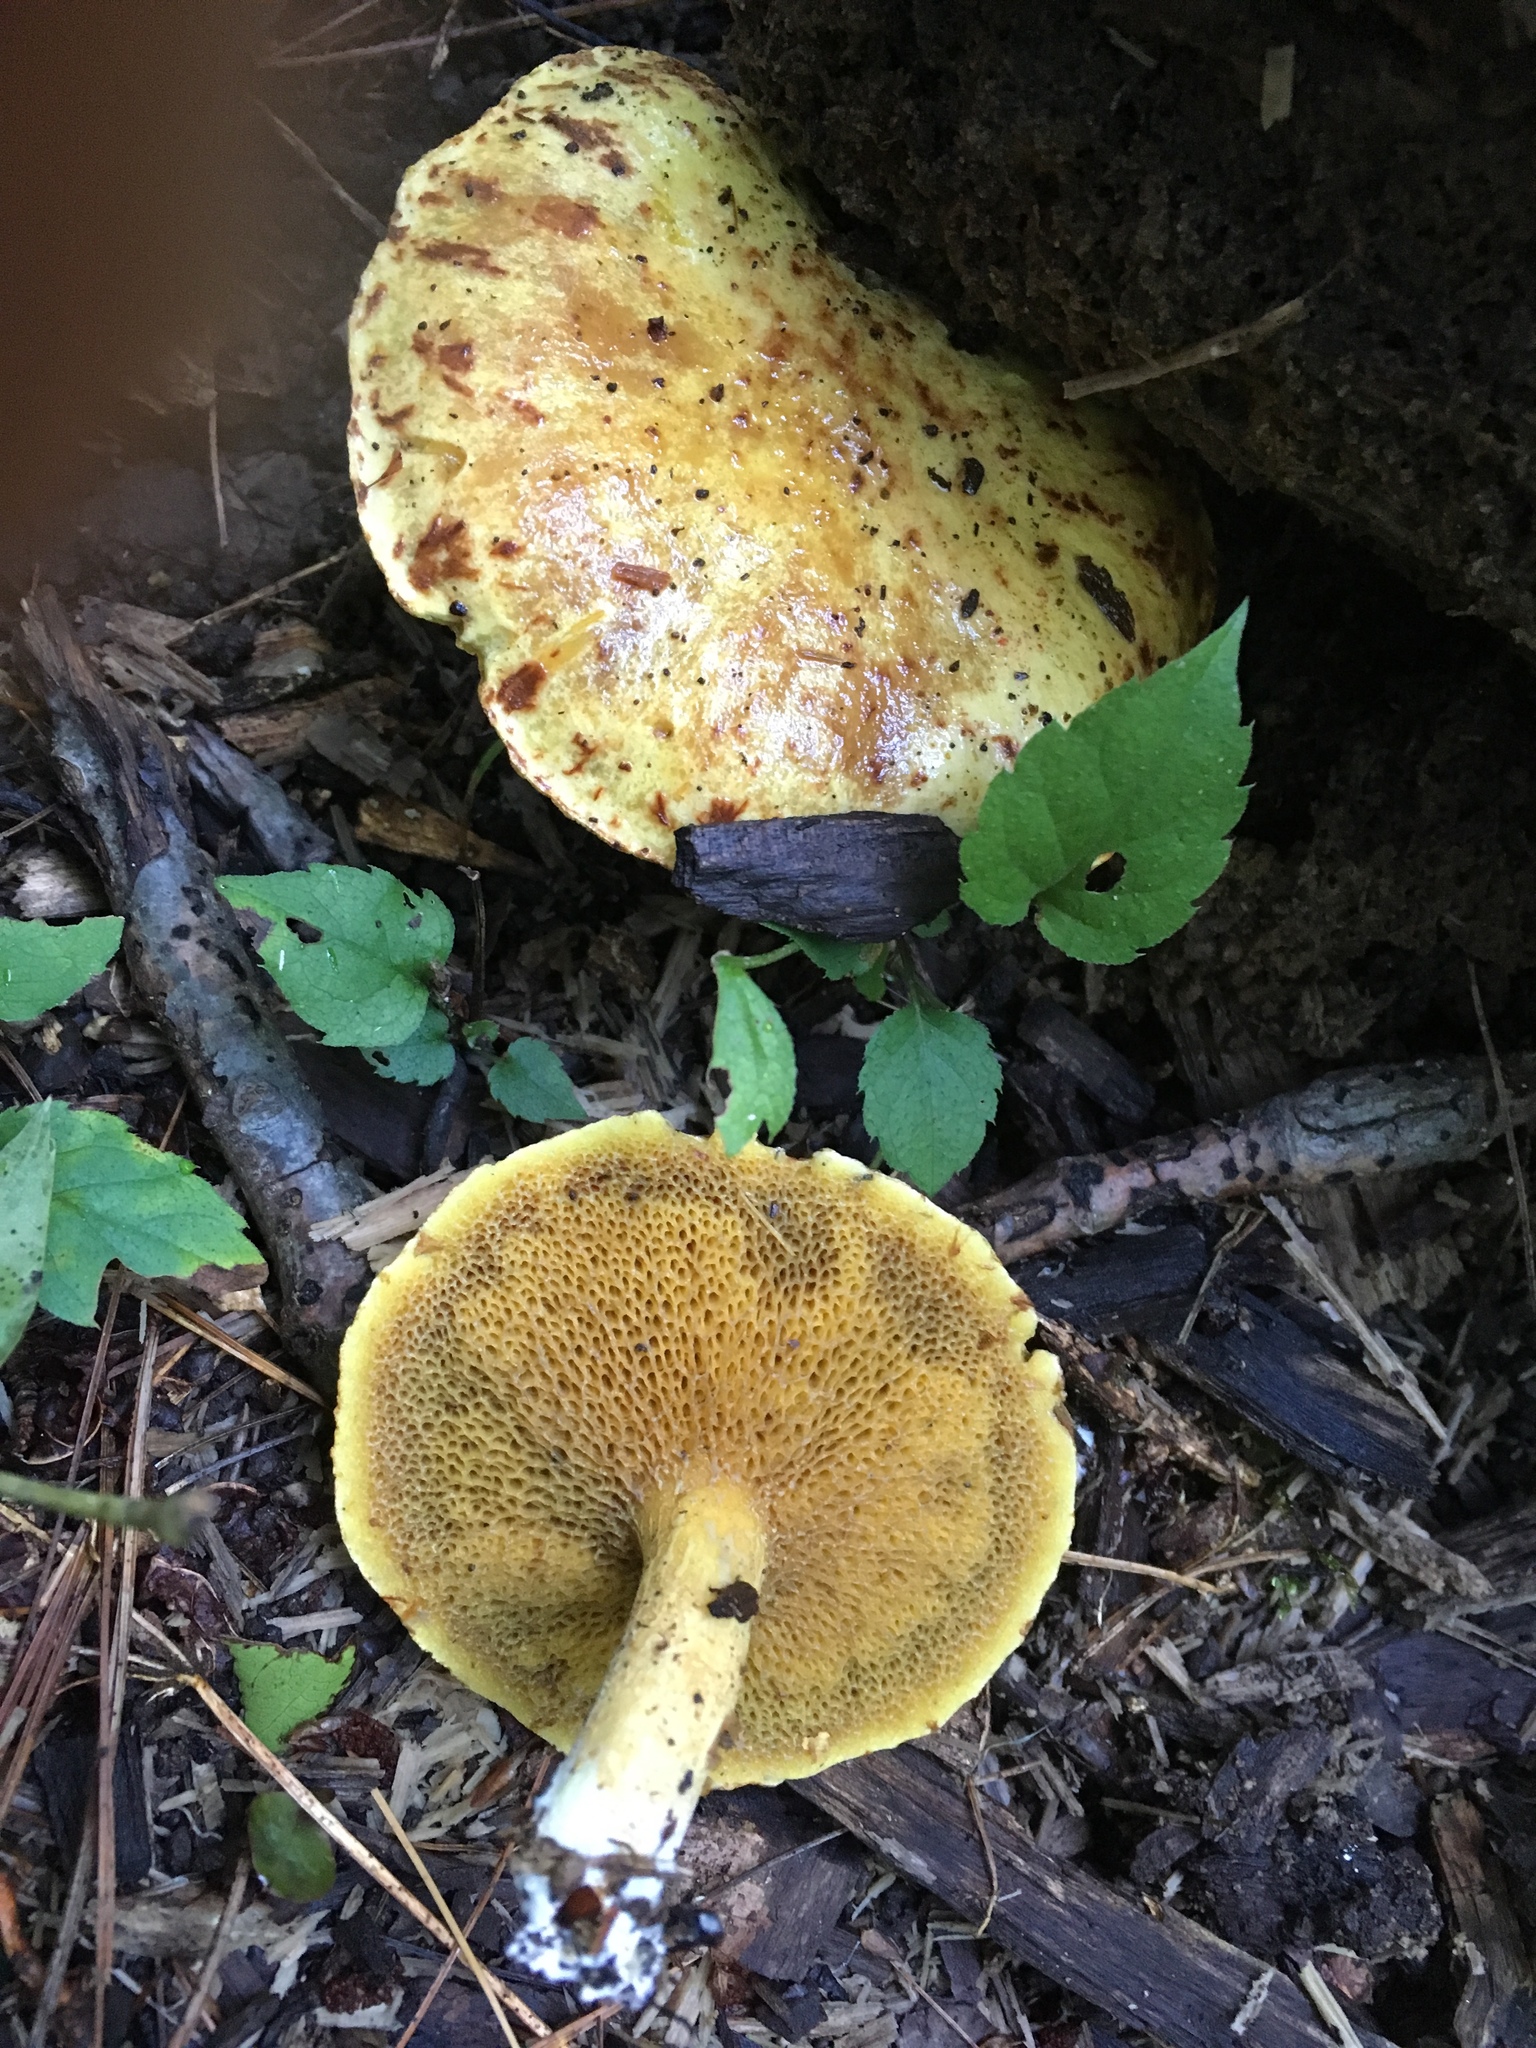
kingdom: Fungi
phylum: Basidiomycota
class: Agaricomycetes
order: Boletales
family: Suillaceae
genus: Suillus
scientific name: Suillus americanus
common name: Chicken fat mushroom
